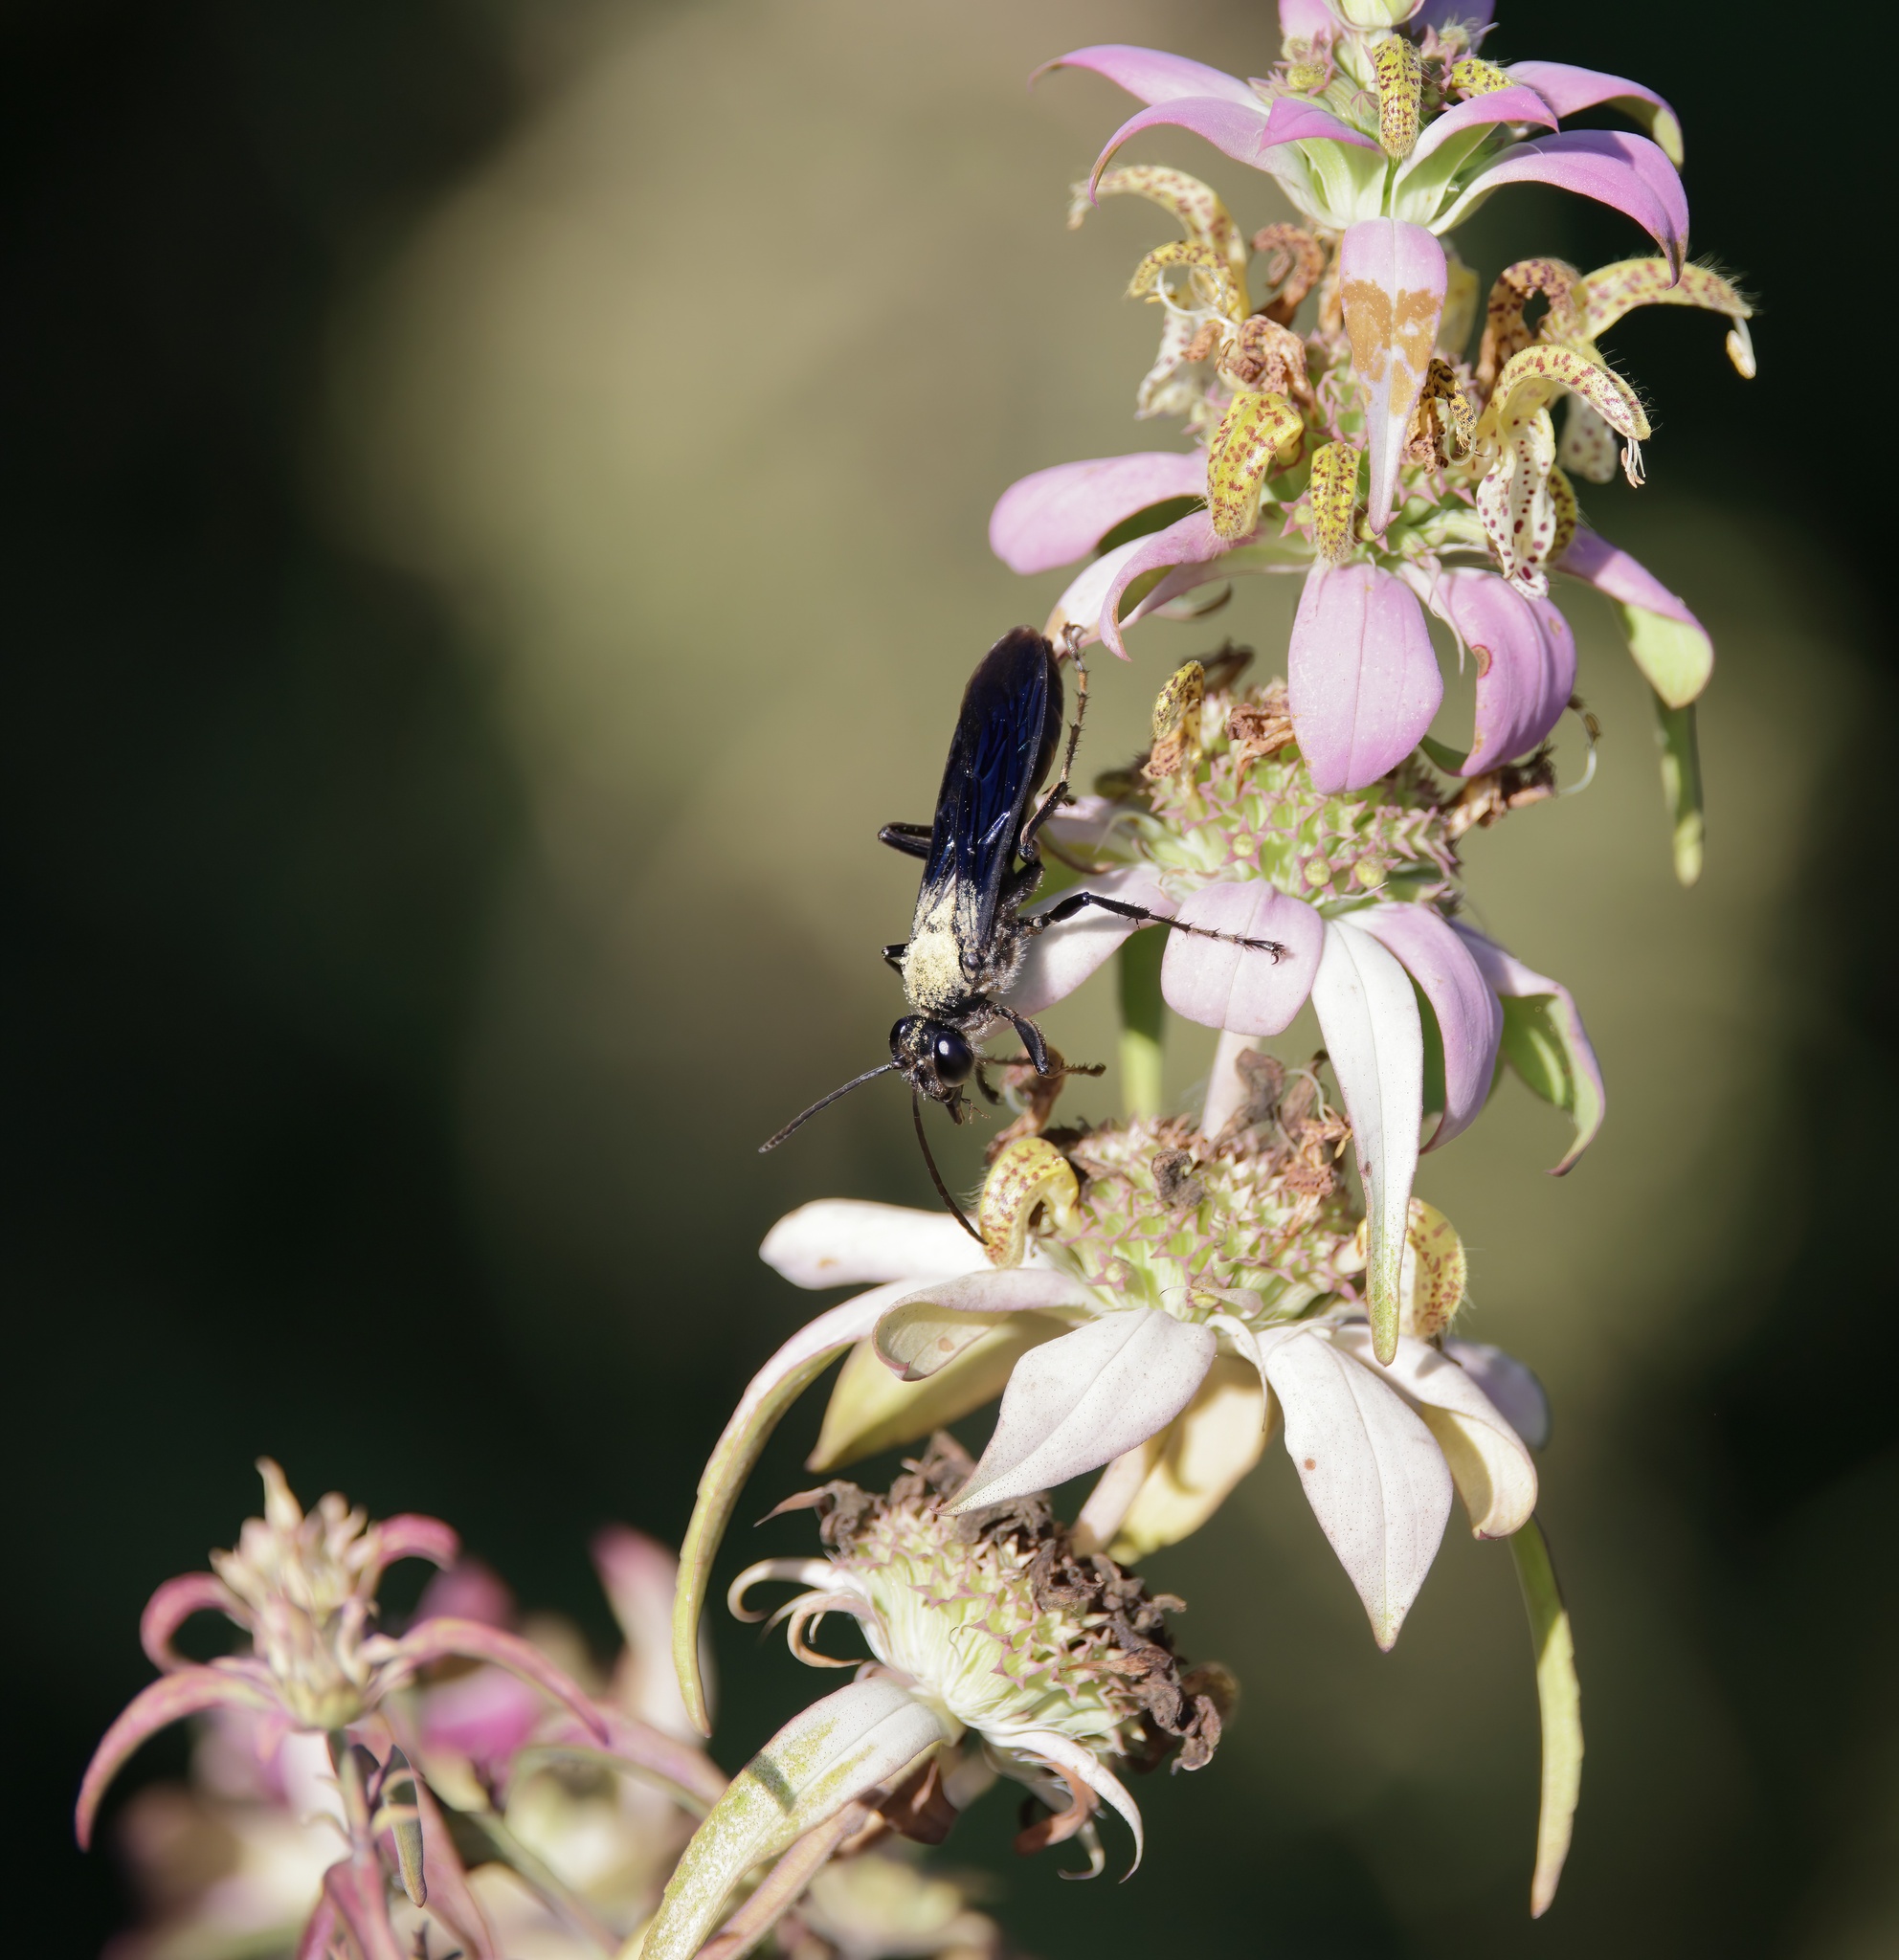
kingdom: Animalia
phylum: Arthropoda
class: Insecta
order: Hymenoptera
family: Sphecidae
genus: Sphex
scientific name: Sphex pensylvanicus
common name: Great black digger wasp
